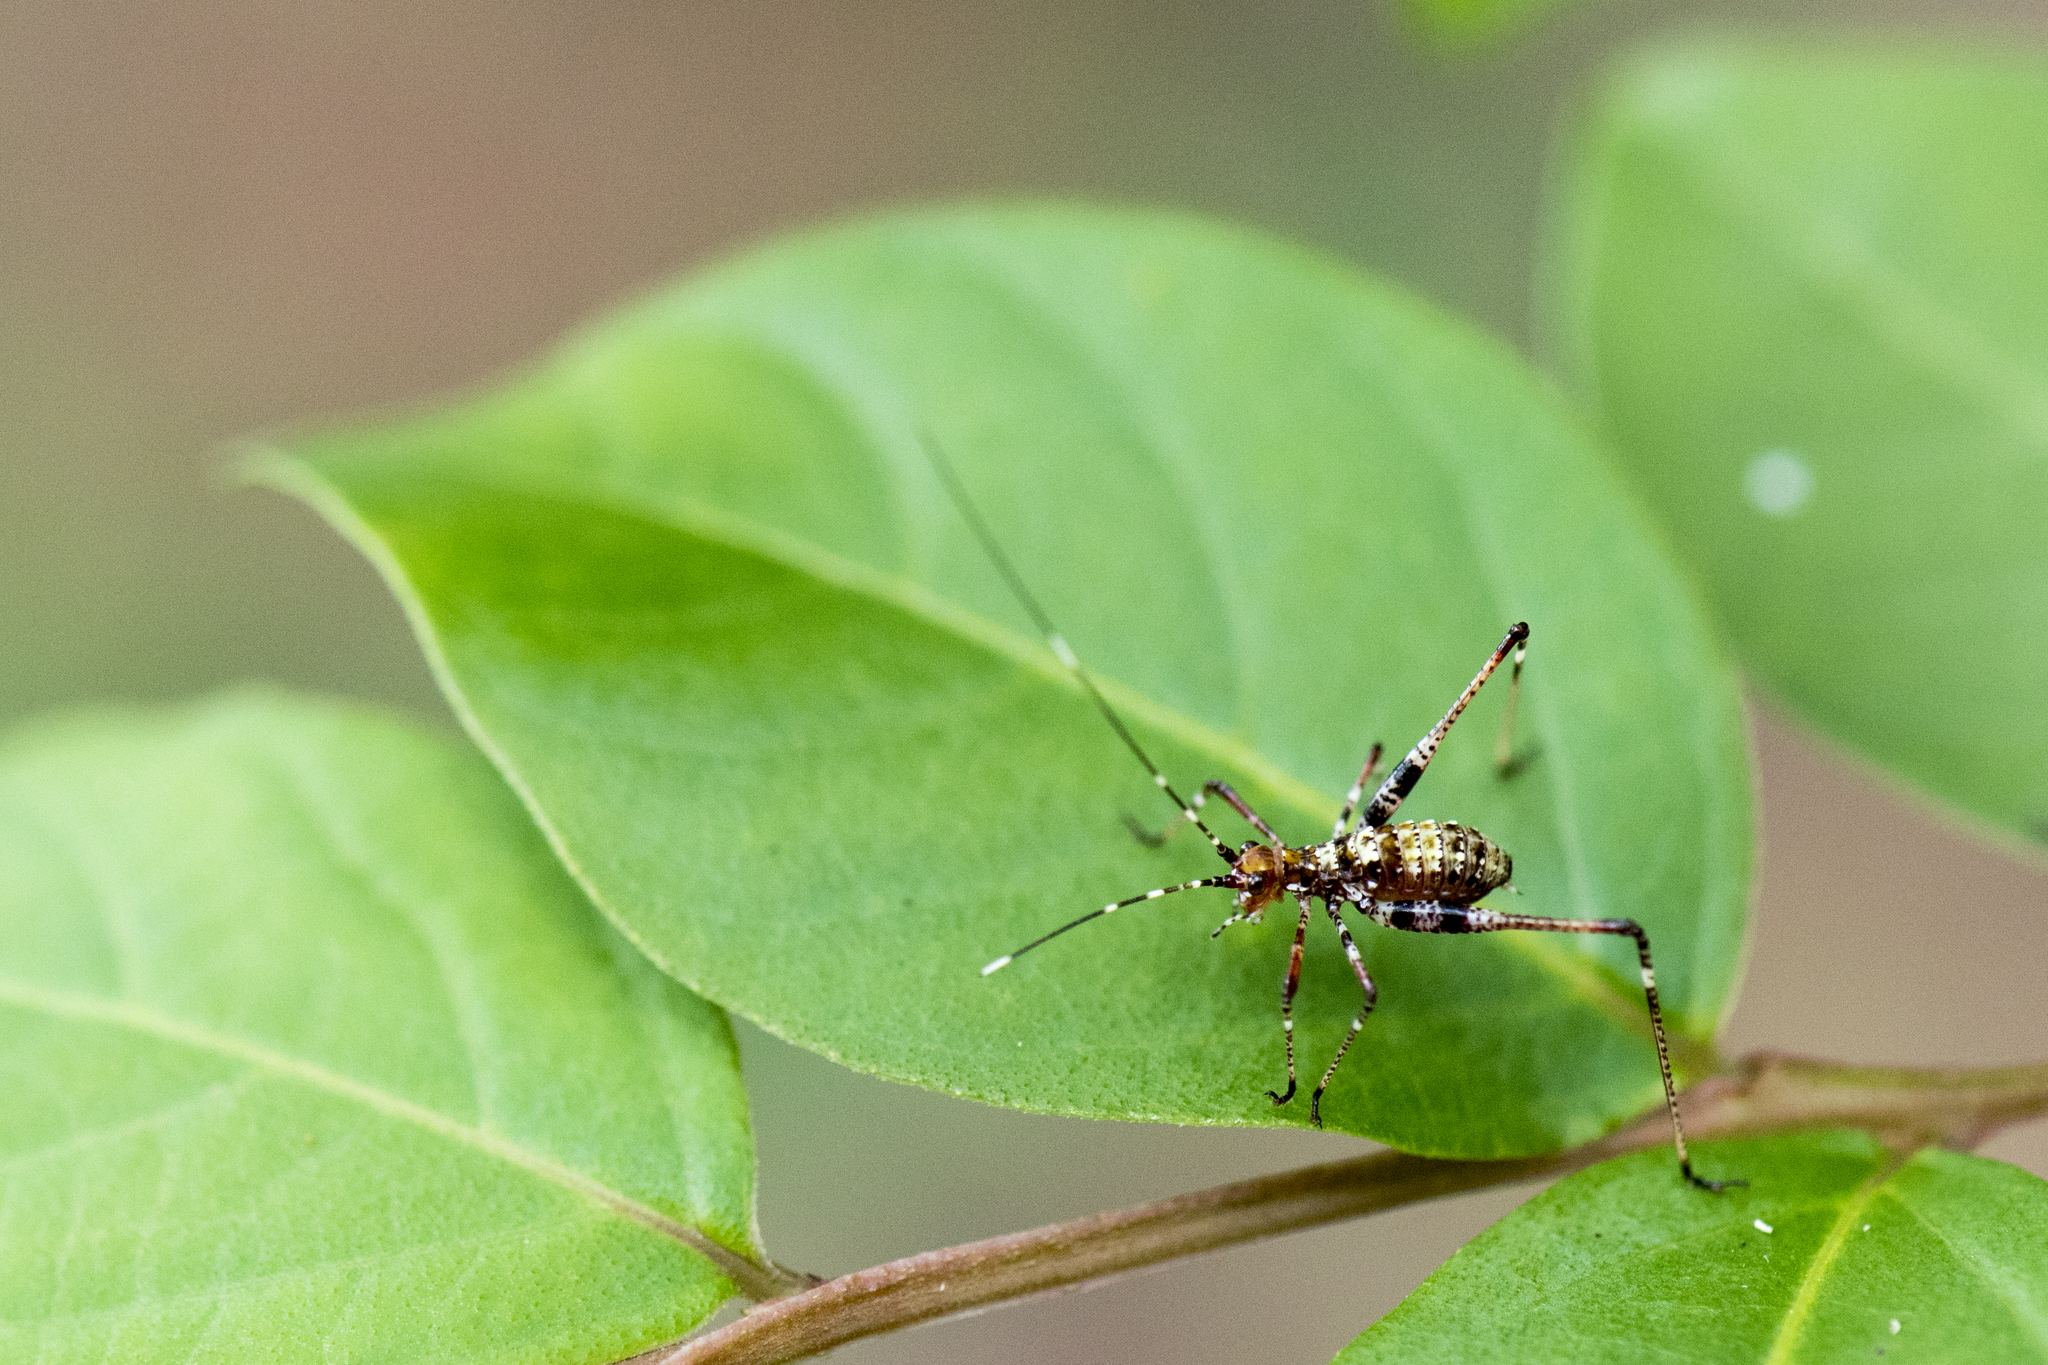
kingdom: Animalia
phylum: Arthropoda
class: Insecta
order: Orthoptera
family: Tettigoniidae
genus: Isopsera
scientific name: Isopsera brevissima
